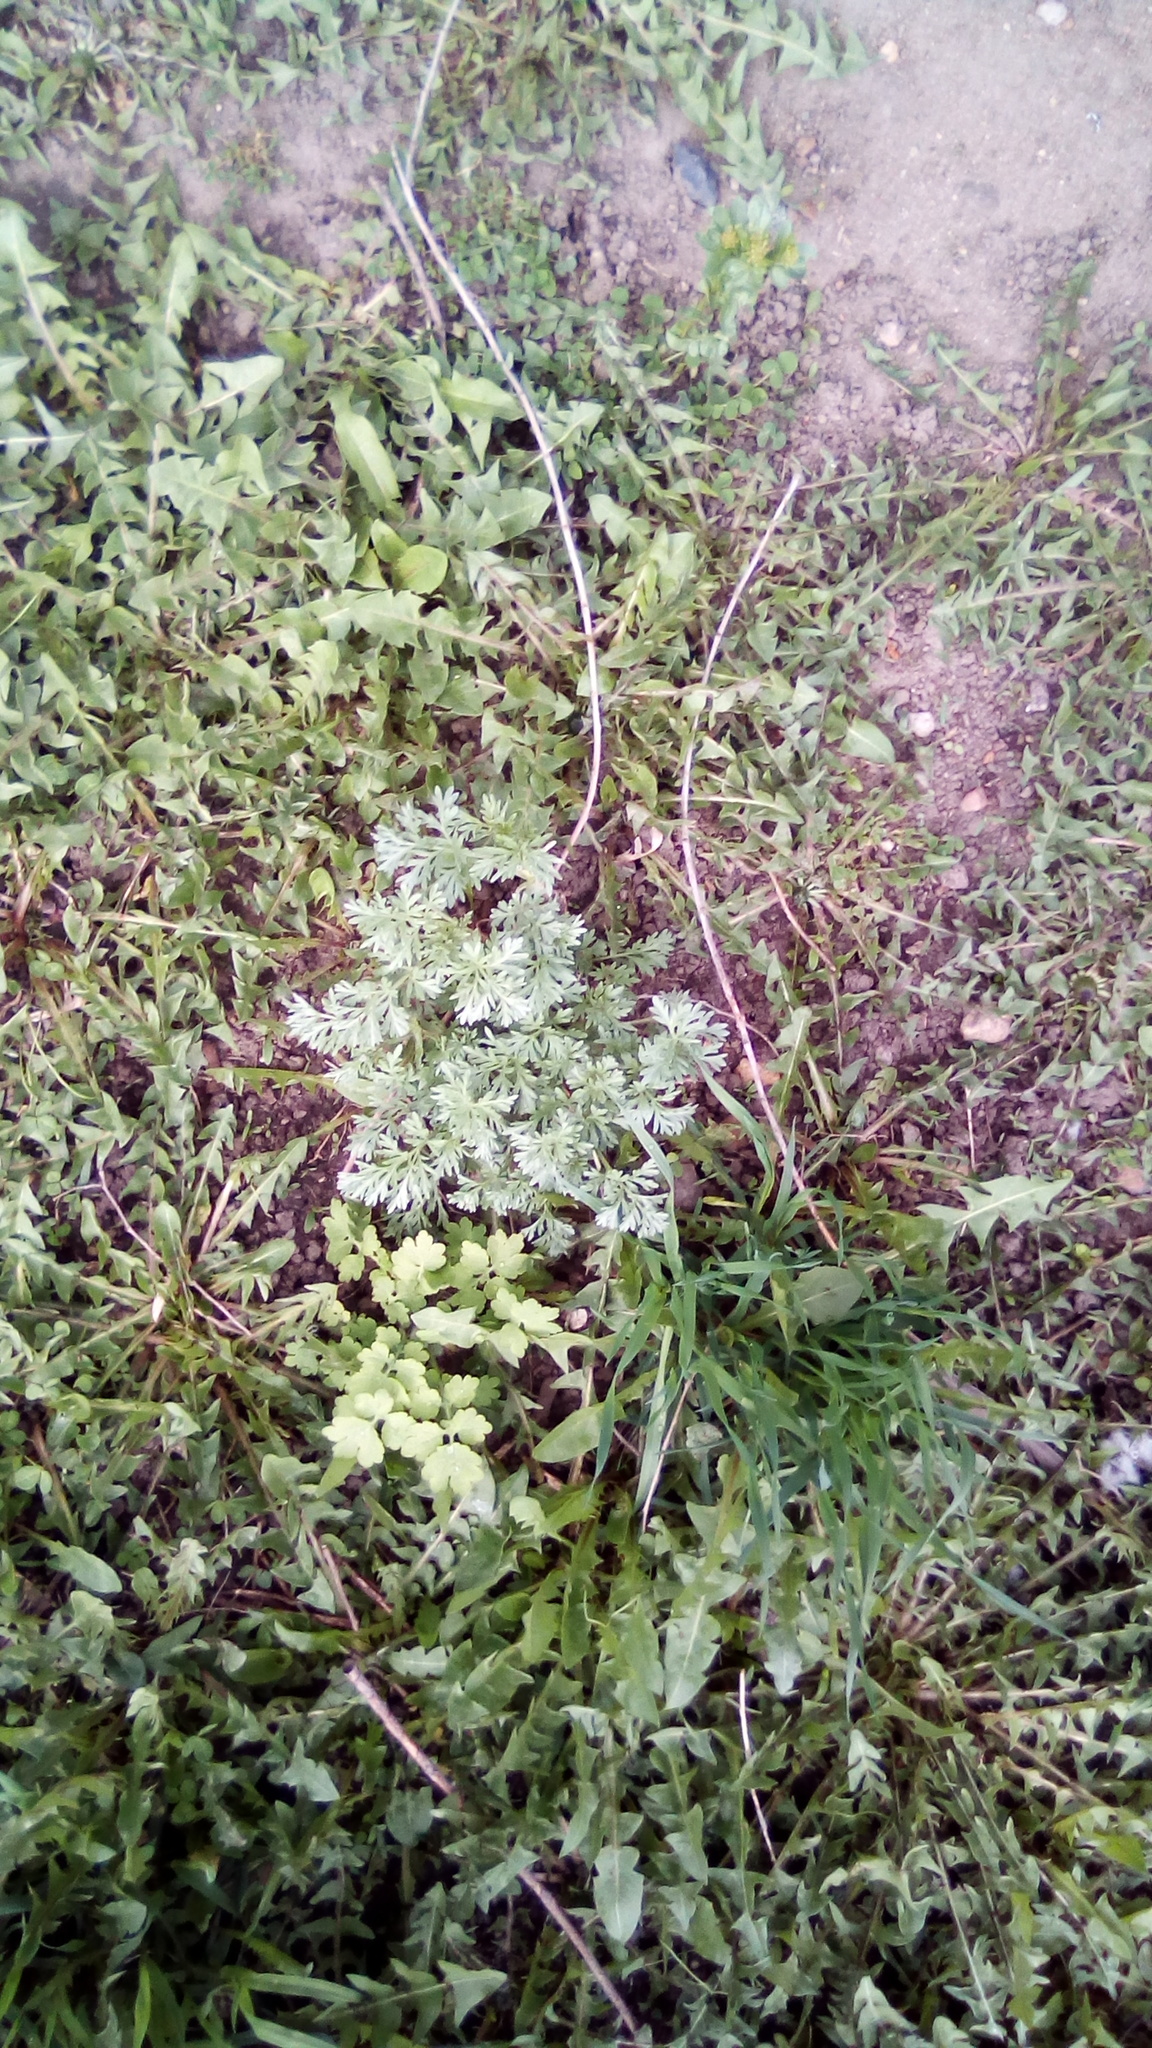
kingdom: Plantae
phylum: Tracheophyta
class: Magnoliopsida
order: Asterales
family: Asteraceae
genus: Artemisia
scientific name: Artemisia absinthium
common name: Wormwood
